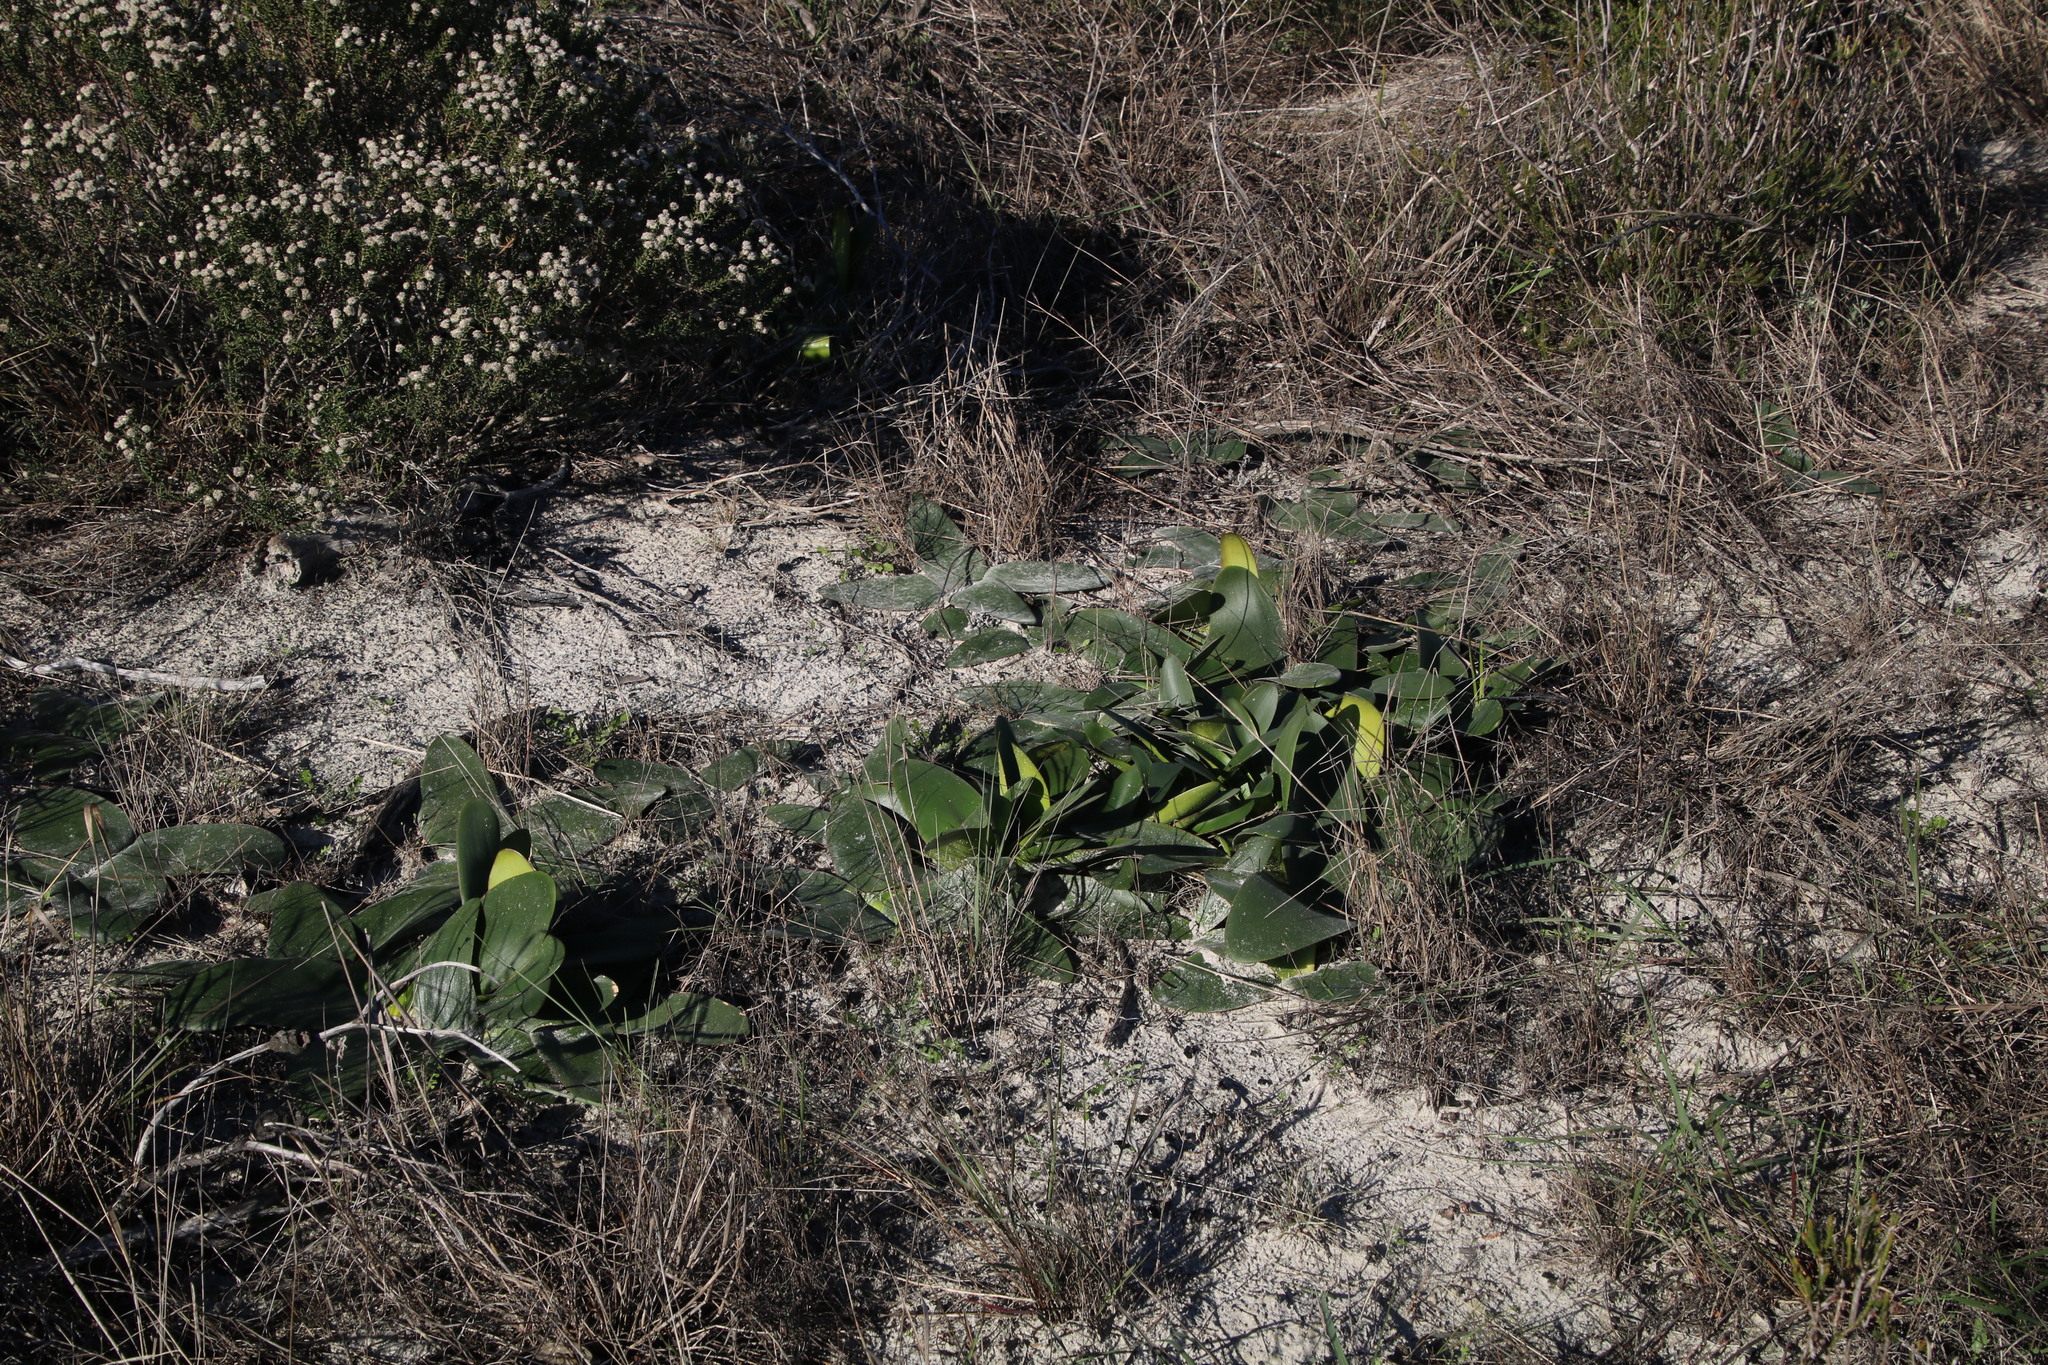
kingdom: Plantae
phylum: Tracheophyta
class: Liliopsida
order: Asparagales
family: Amaryllidaceae
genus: Brunsvigia
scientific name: Brunsvigia orientalis
